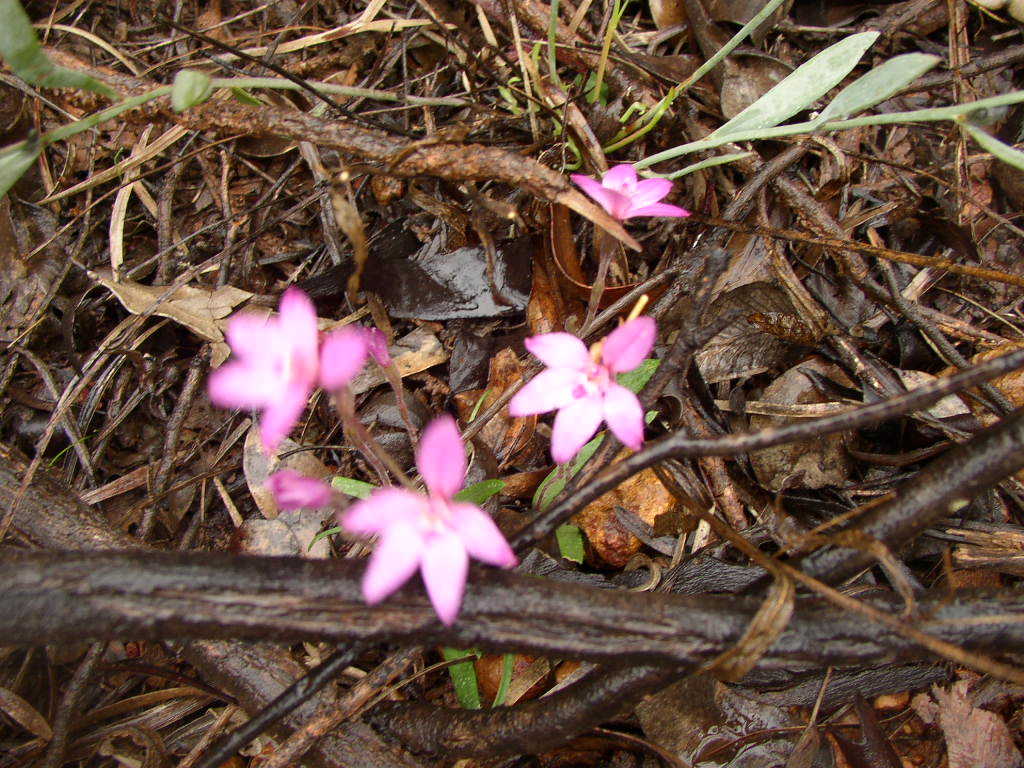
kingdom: Plantae
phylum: Tracheophyta
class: Liliopsida
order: Asparagales
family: Orchidaceae
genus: Caladenia
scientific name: Caladenia reptans
